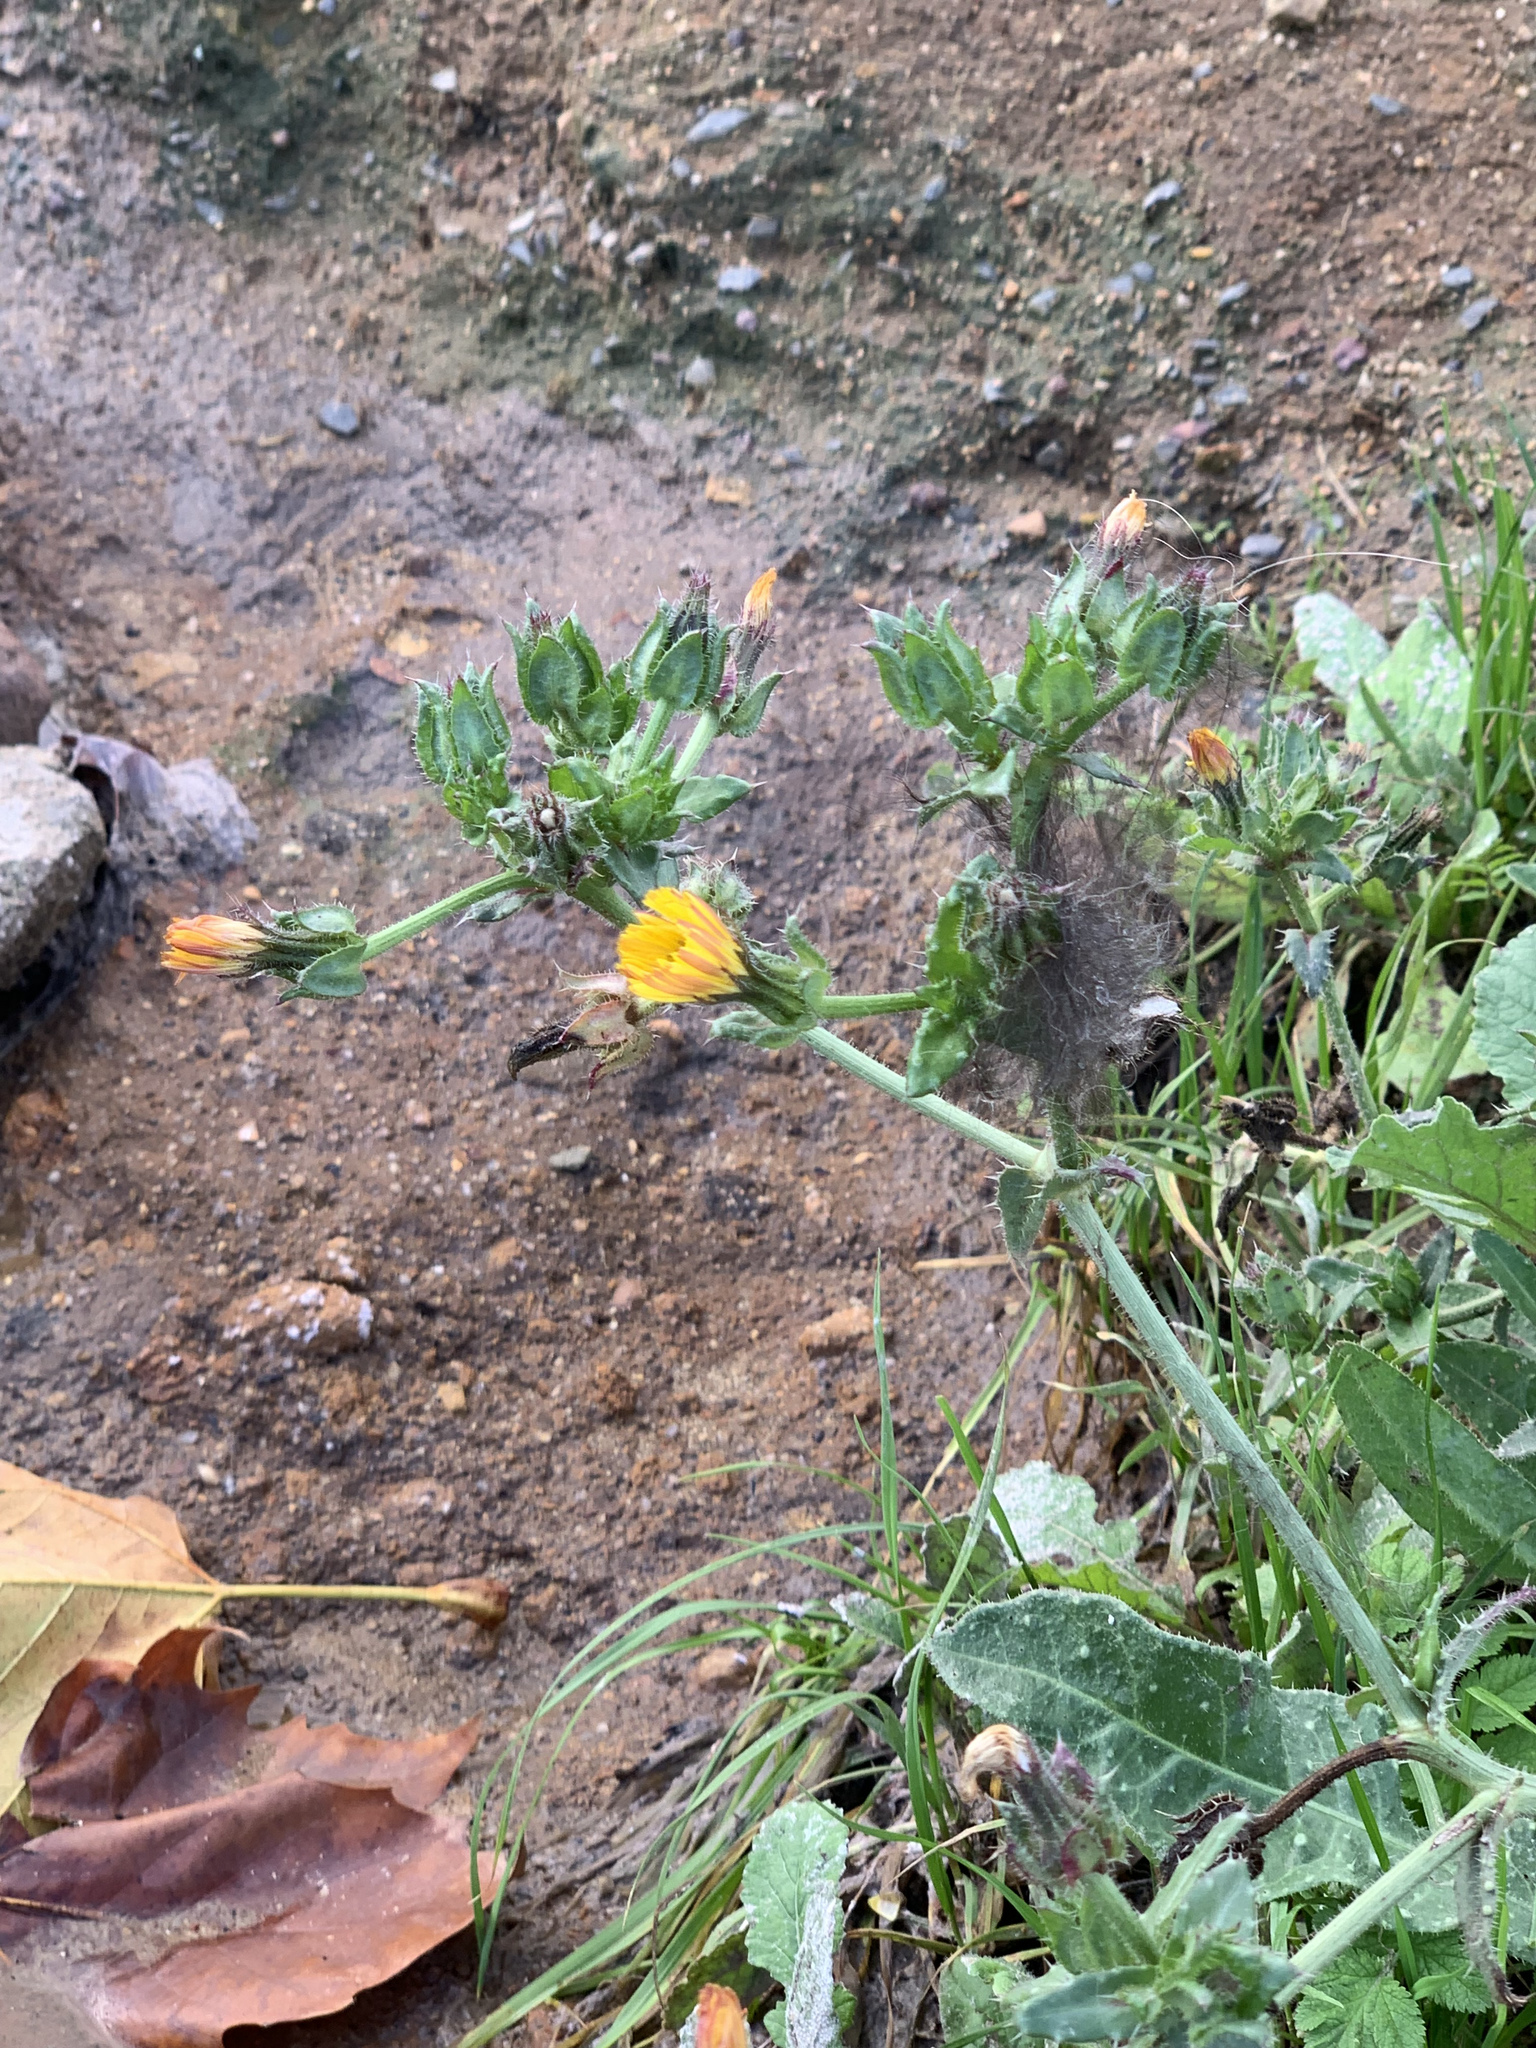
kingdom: Plantae
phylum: Tracheophyta
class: Magnoliopsida
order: Asterales
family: Asteraceae
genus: Helminthotheca
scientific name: Helminthotheca echioides
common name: Ox-tongue
